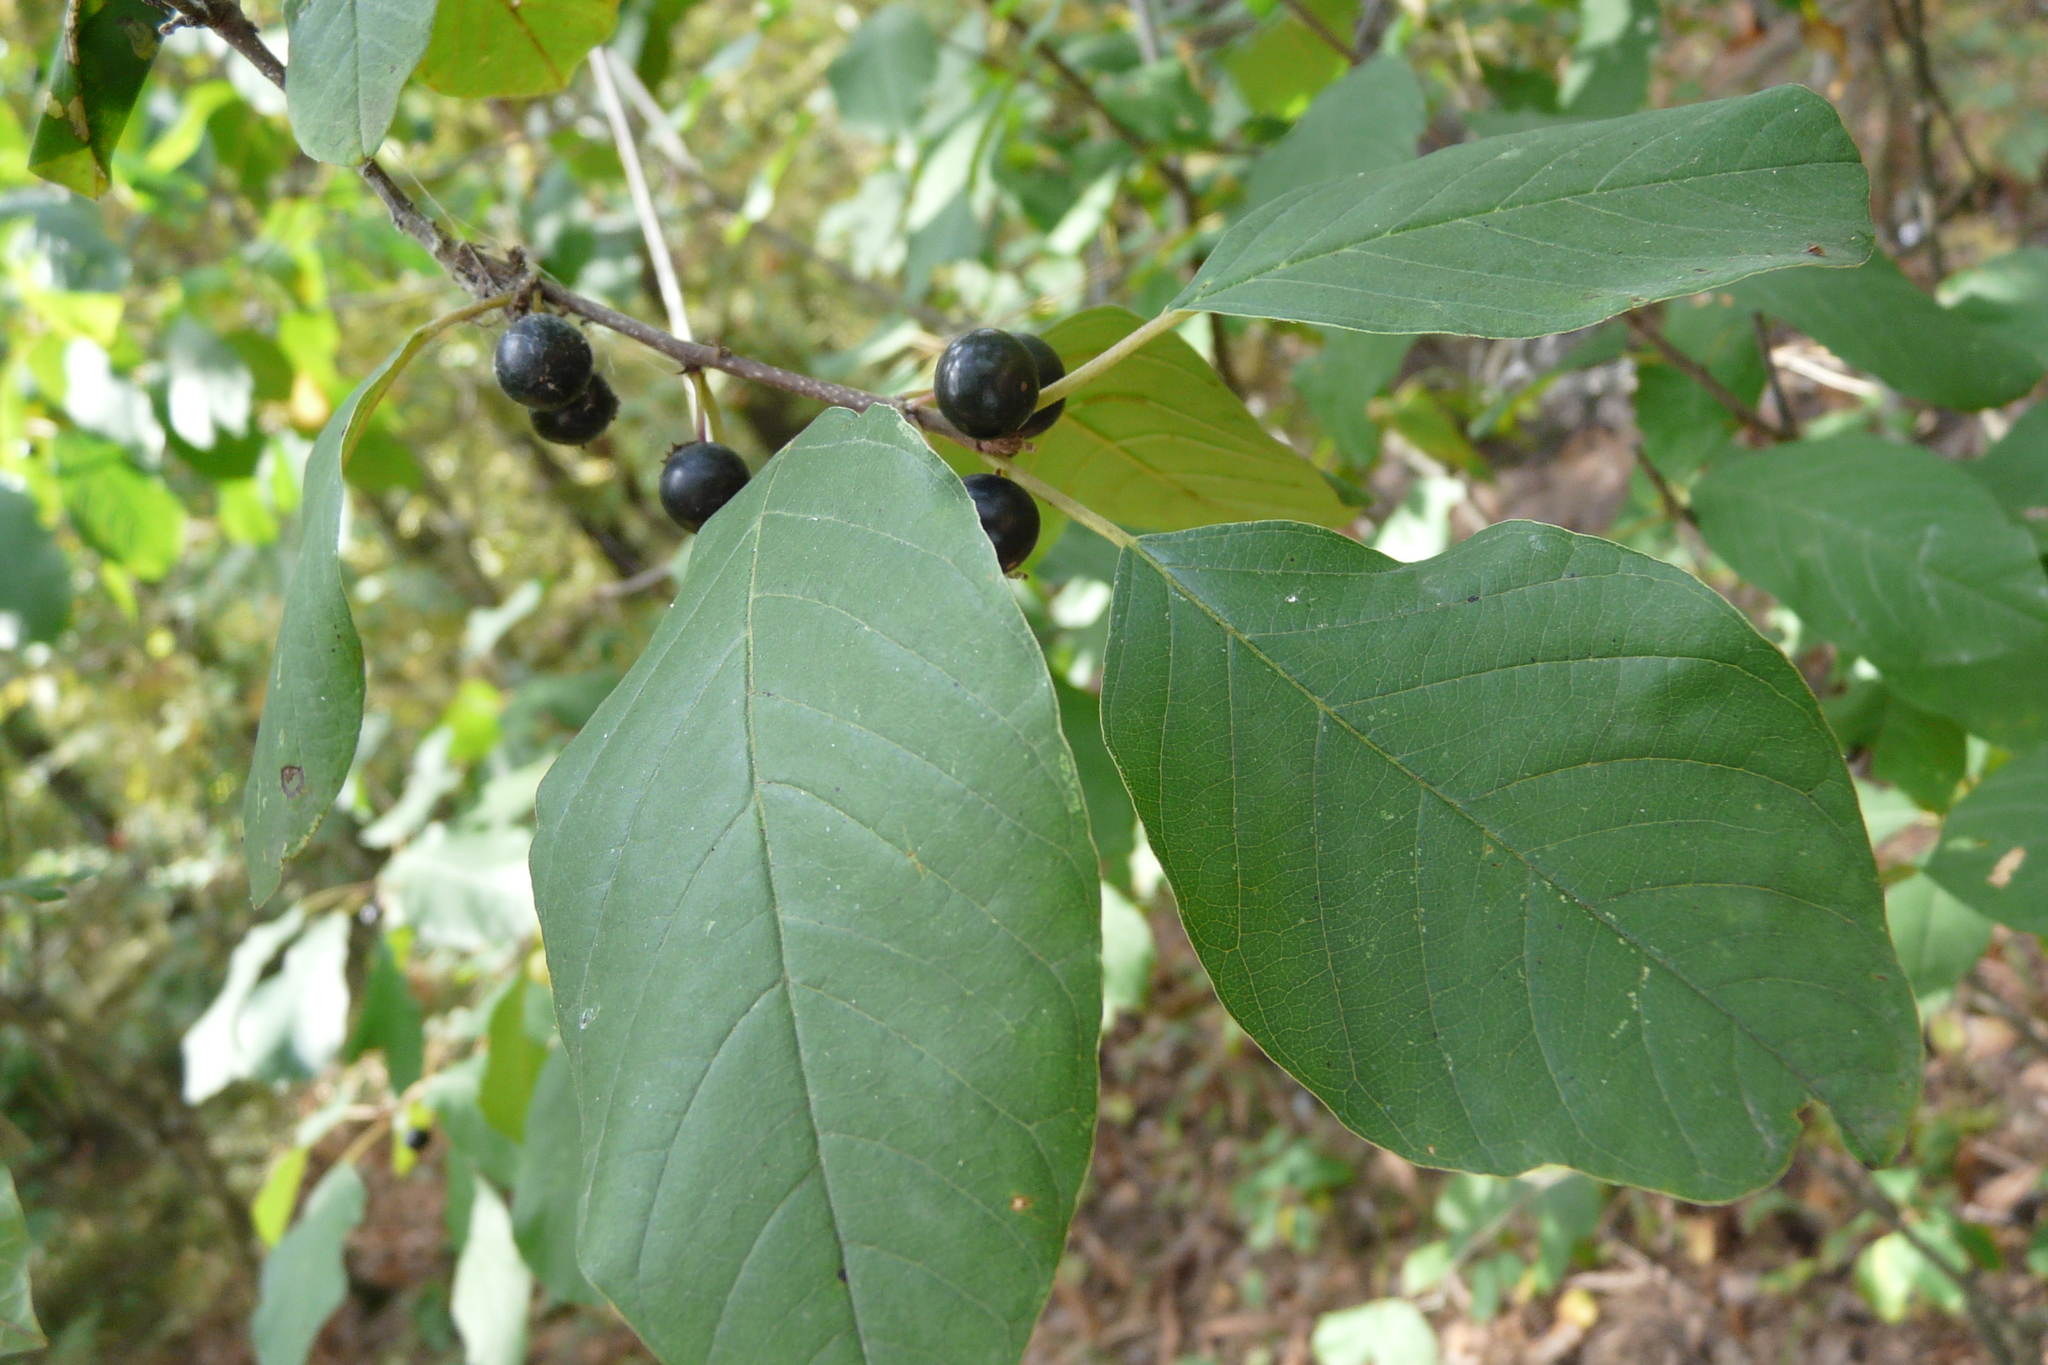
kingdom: Plantae
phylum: Tracheophyta
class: Magnoliopsida
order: Rosales
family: Rhamnaceae
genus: Frangula
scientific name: Frangula alnus
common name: Alder buckthorn
